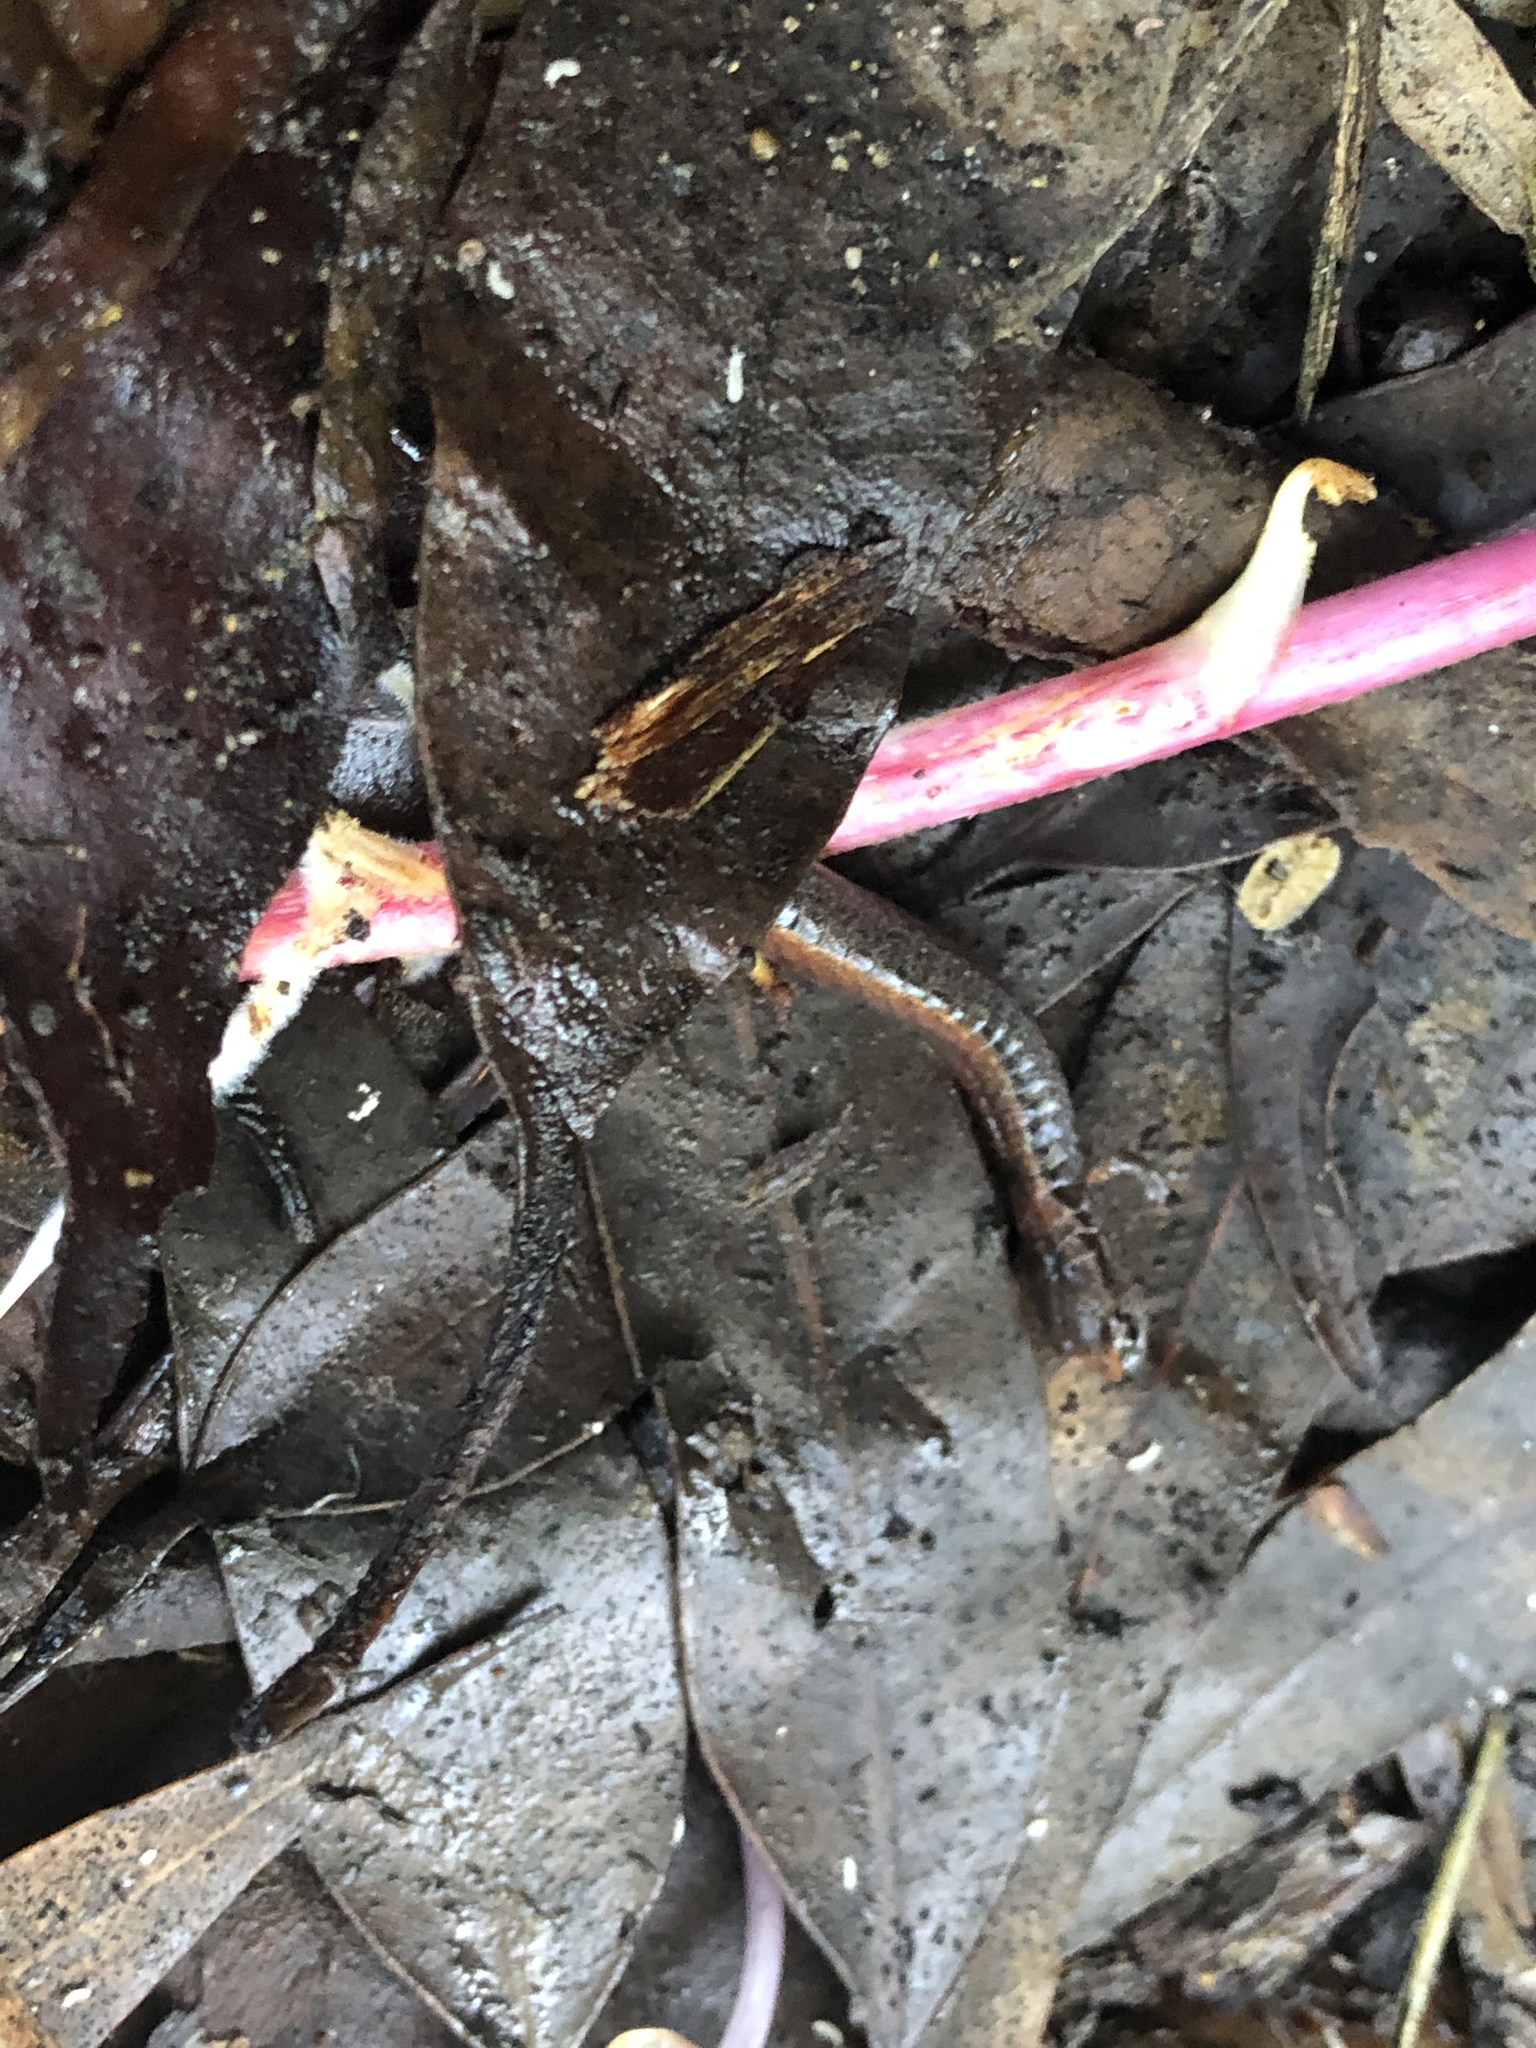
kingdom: Animalia
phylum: Chordata
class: Amphibia
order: Caudata
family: Plethodontidae
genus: Batrachoseps
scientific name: Batrachoseps attenuatus
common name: California slender salamander
